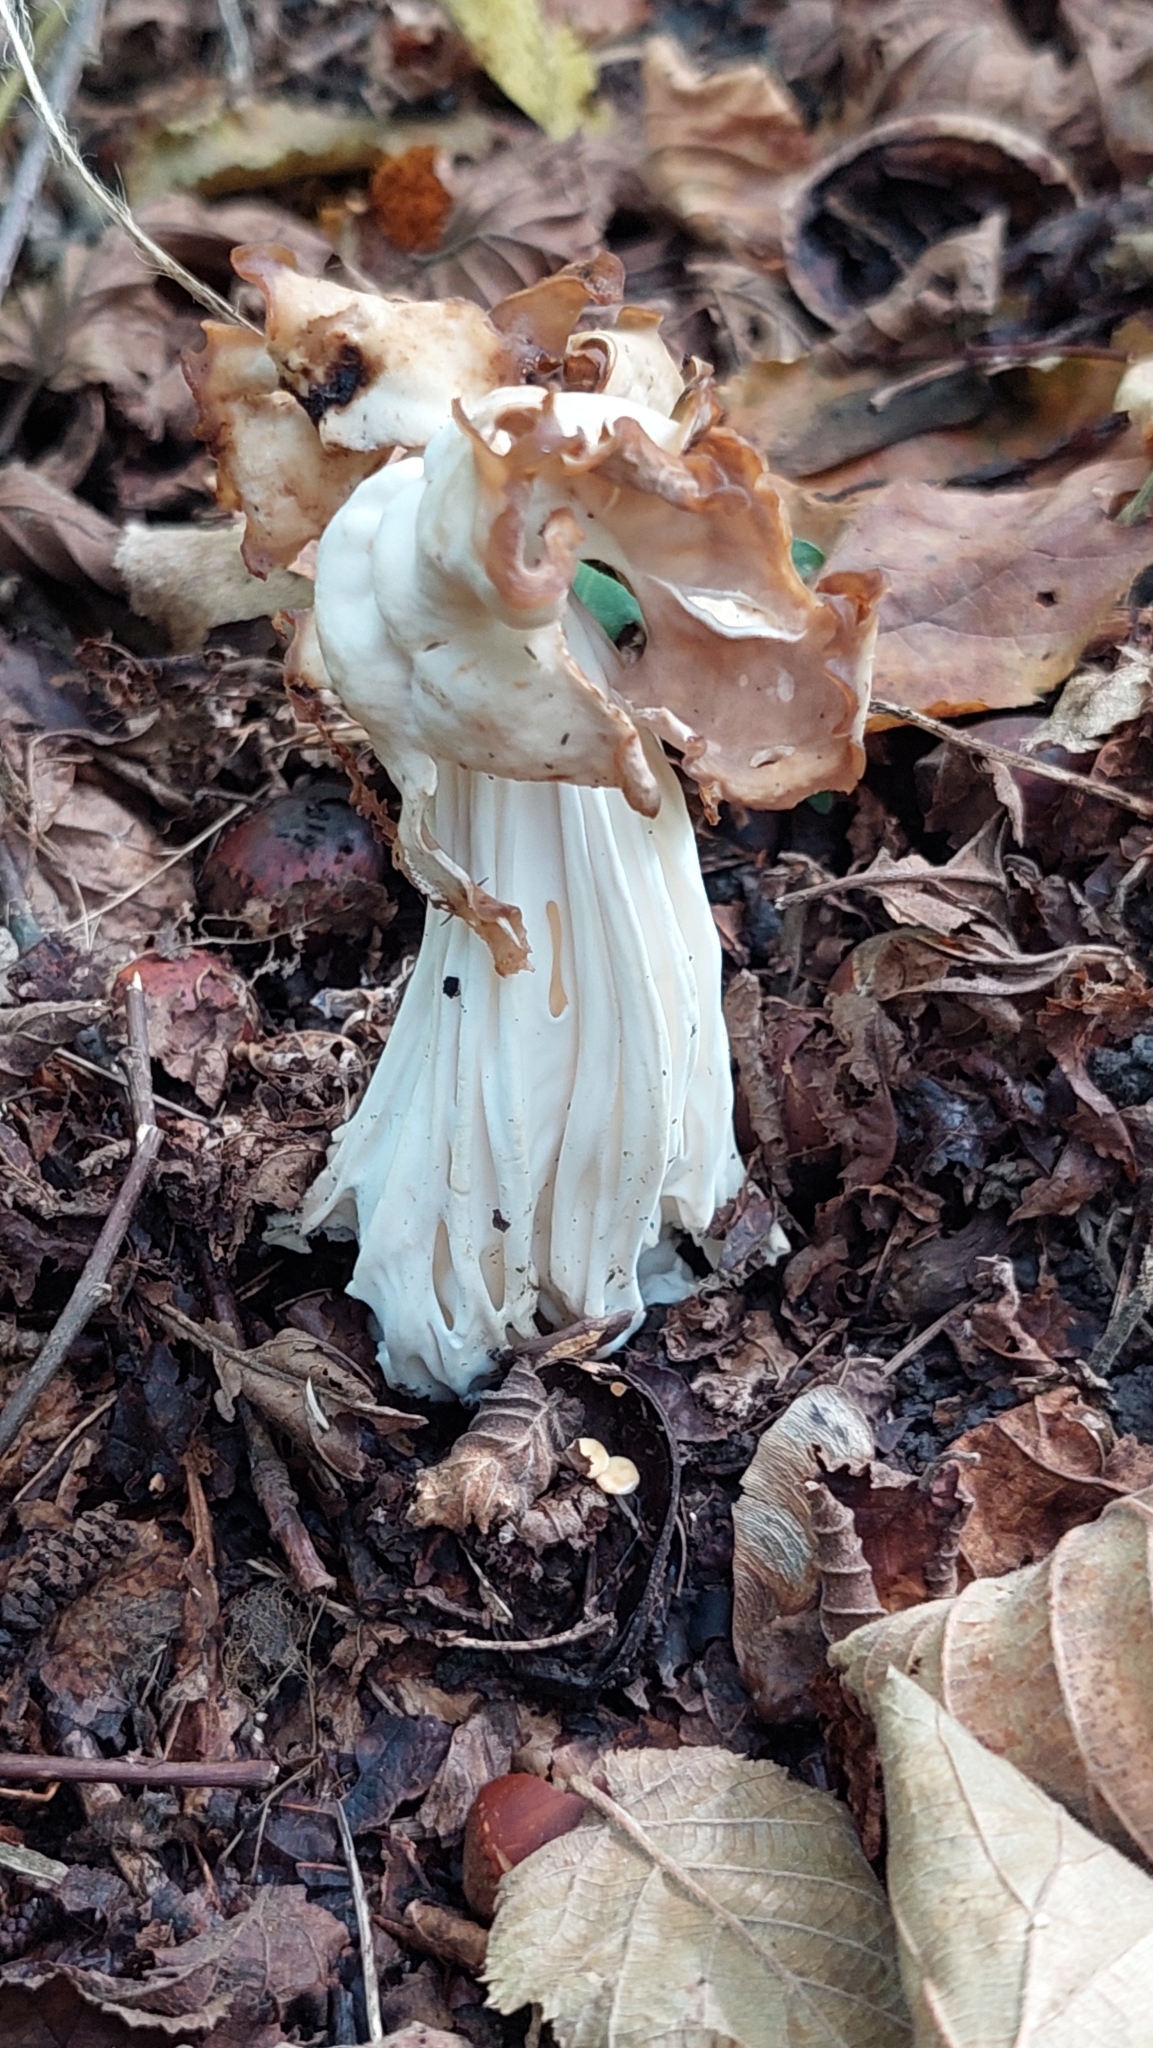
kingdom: Fungi
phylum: Ascomycota
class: Pezizomycetes
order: Pezizales
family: Helvellaceae
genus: Helvella
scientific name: Helvella crispa
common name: White saddle
